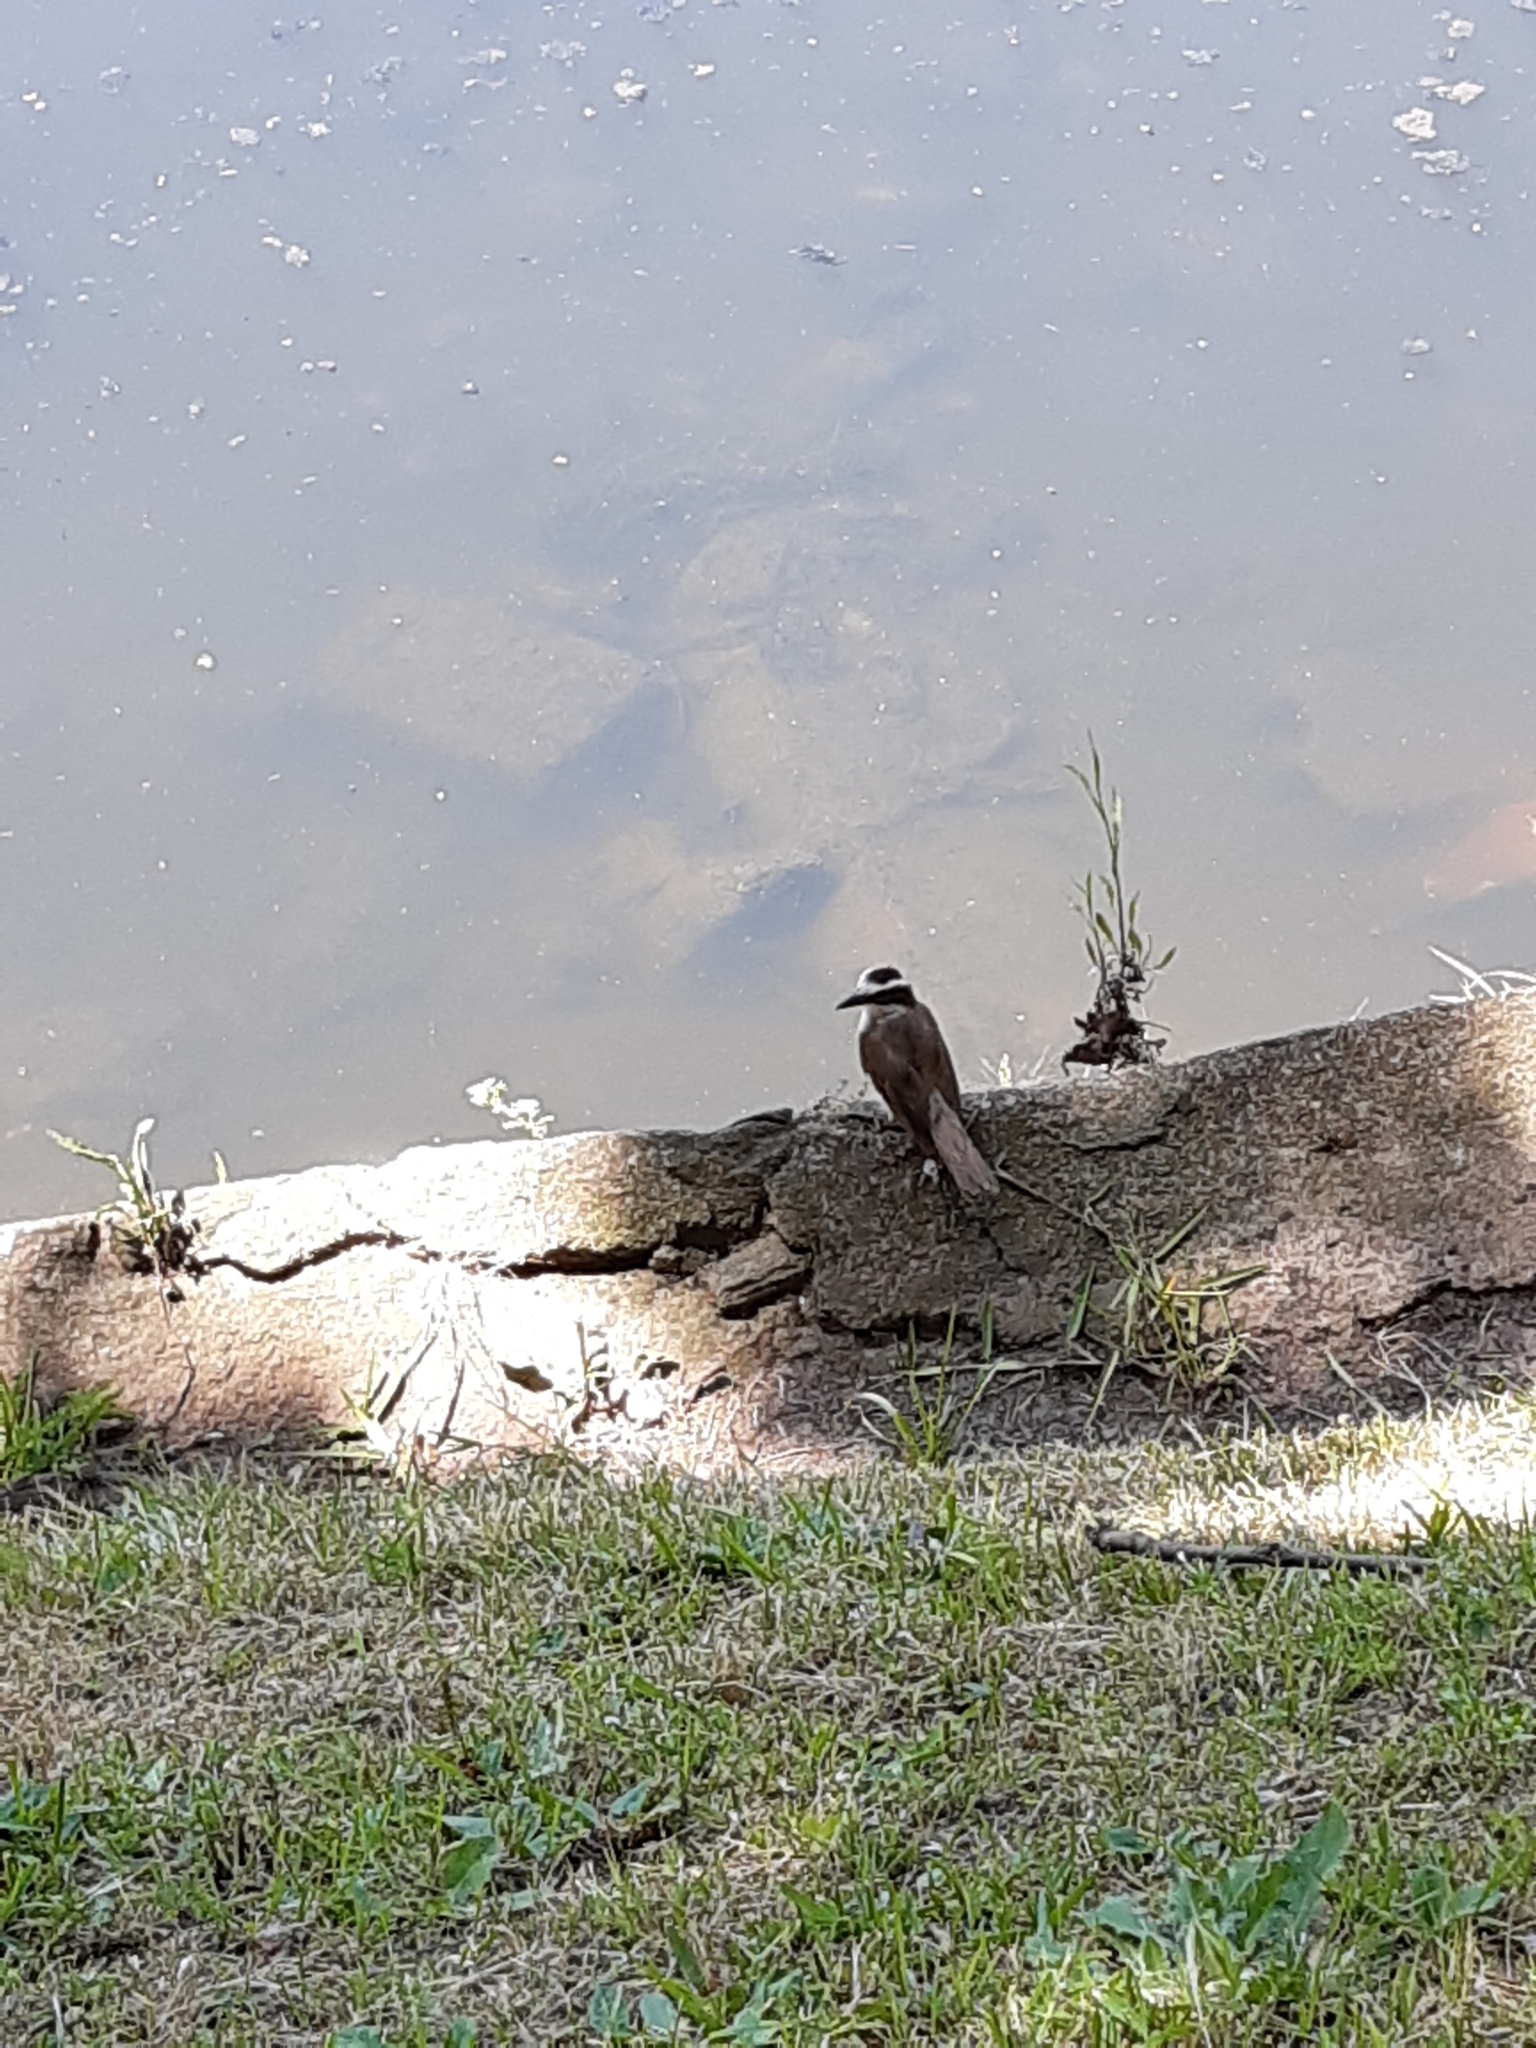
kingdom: Animalia
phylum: Chordata
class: Aves
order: Passeriformes
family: Tyrannidae
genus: Pitangus
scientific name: Pitangus sulphuratus
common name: Great kiskadee
